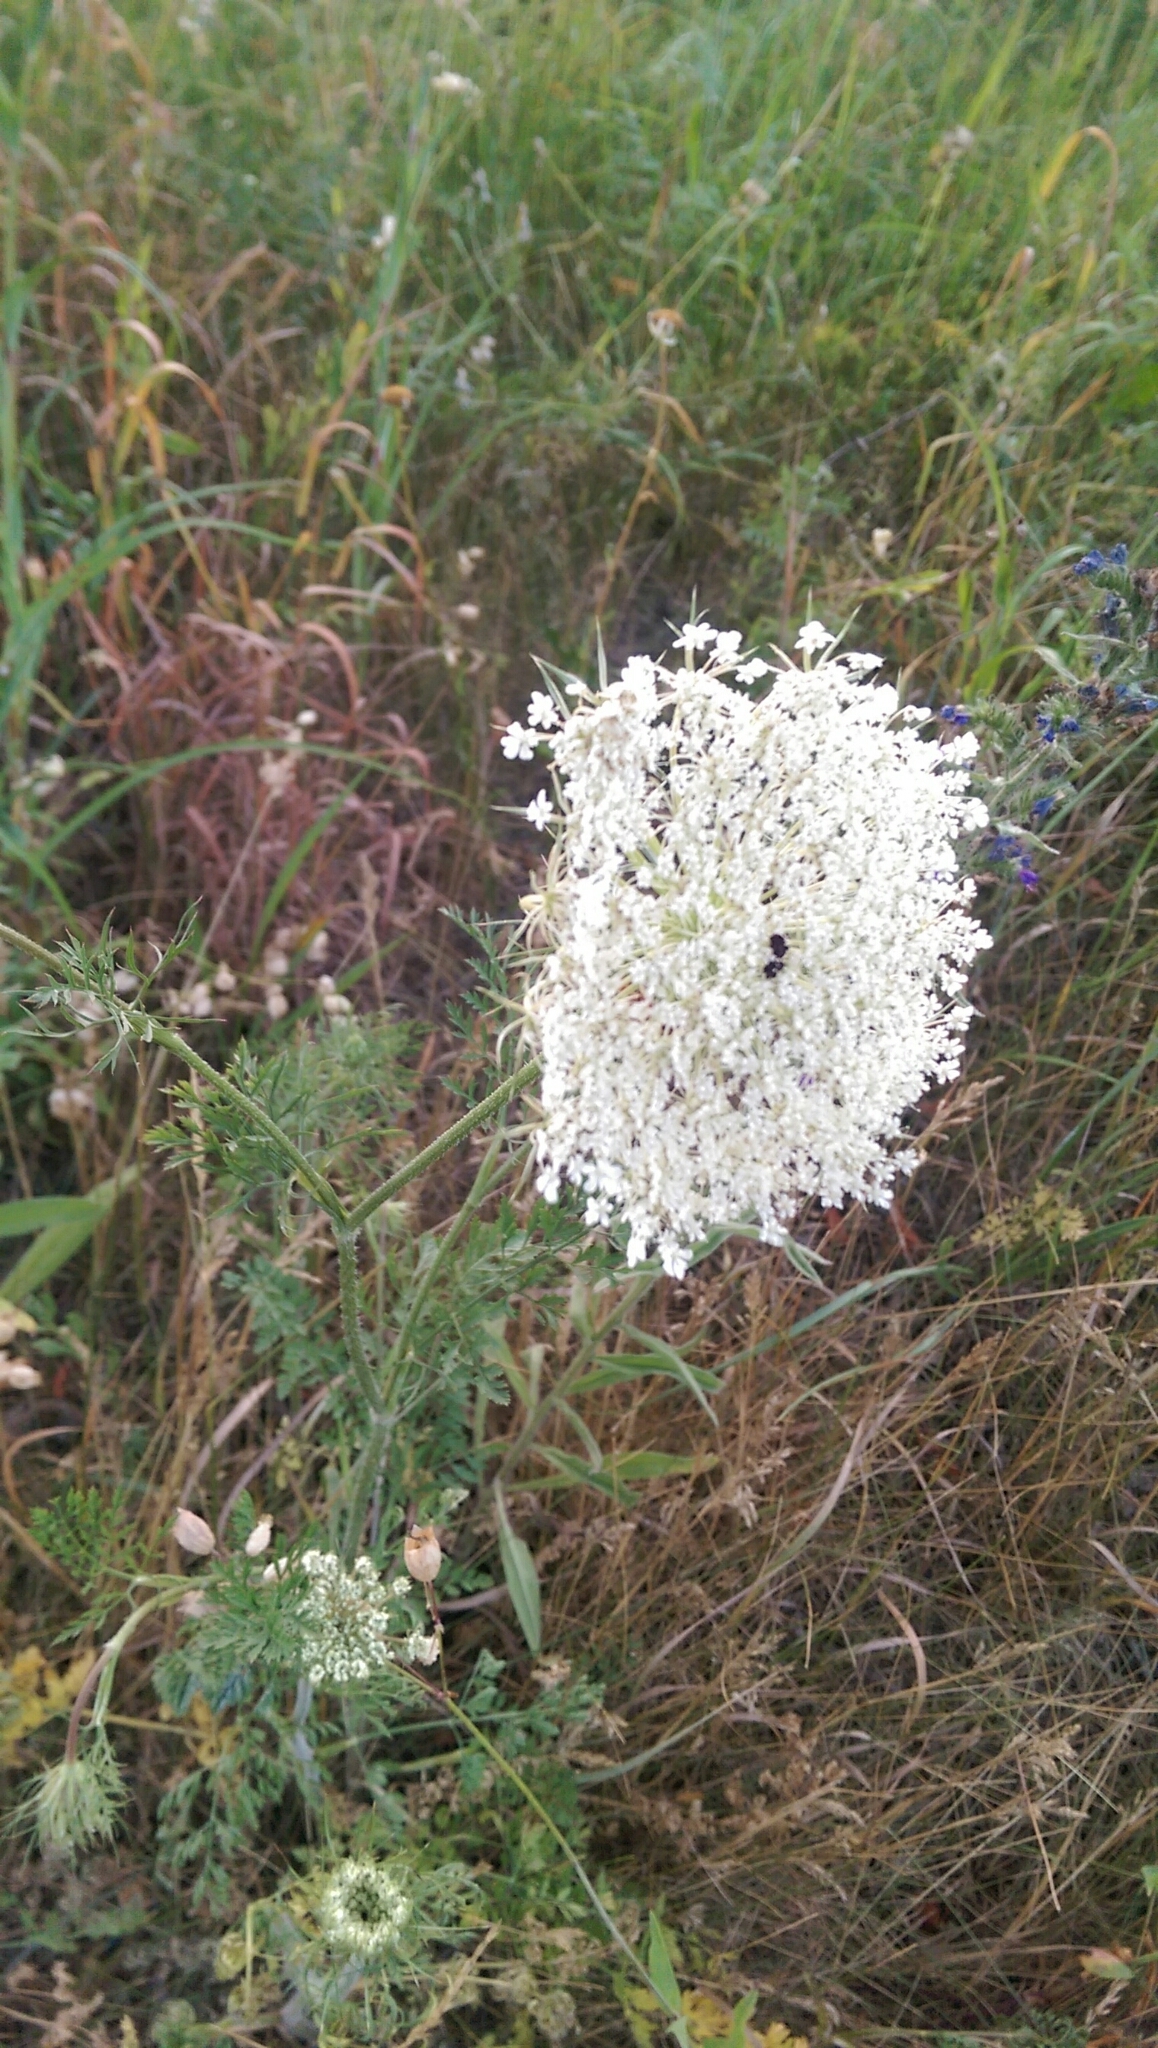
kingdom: Plantae
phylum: Tracheophyta
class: Magnoliopsida
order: Apiales
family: Apiaceae
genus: Daucus
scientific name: Daucus carota
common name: Wild carrot
